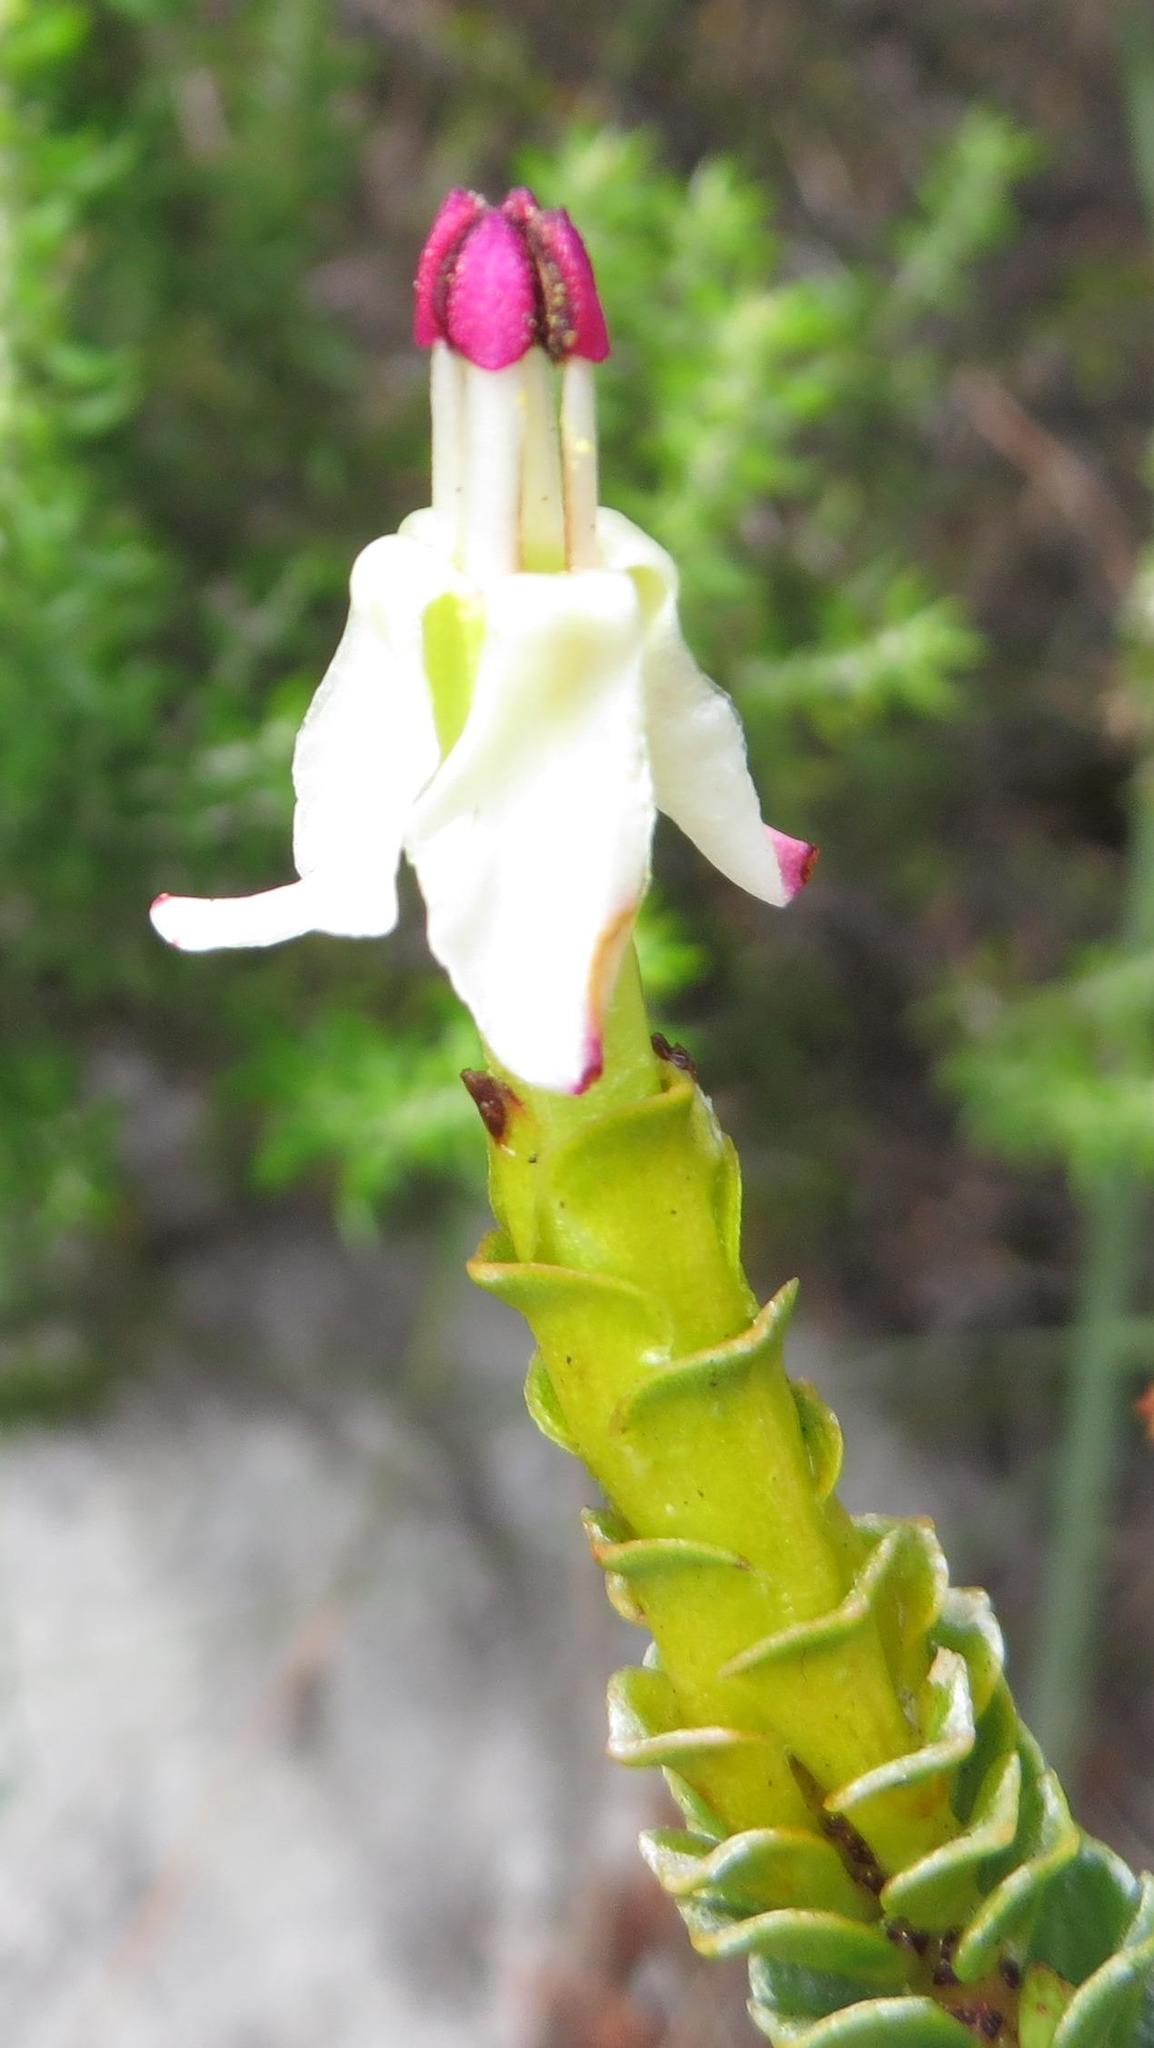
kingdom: Plantae
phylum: Tracheophyta
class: Magnoliopsida
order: Myrtales
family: Penaeaceae
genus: Saltera
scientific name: Saltera sarcocolla
